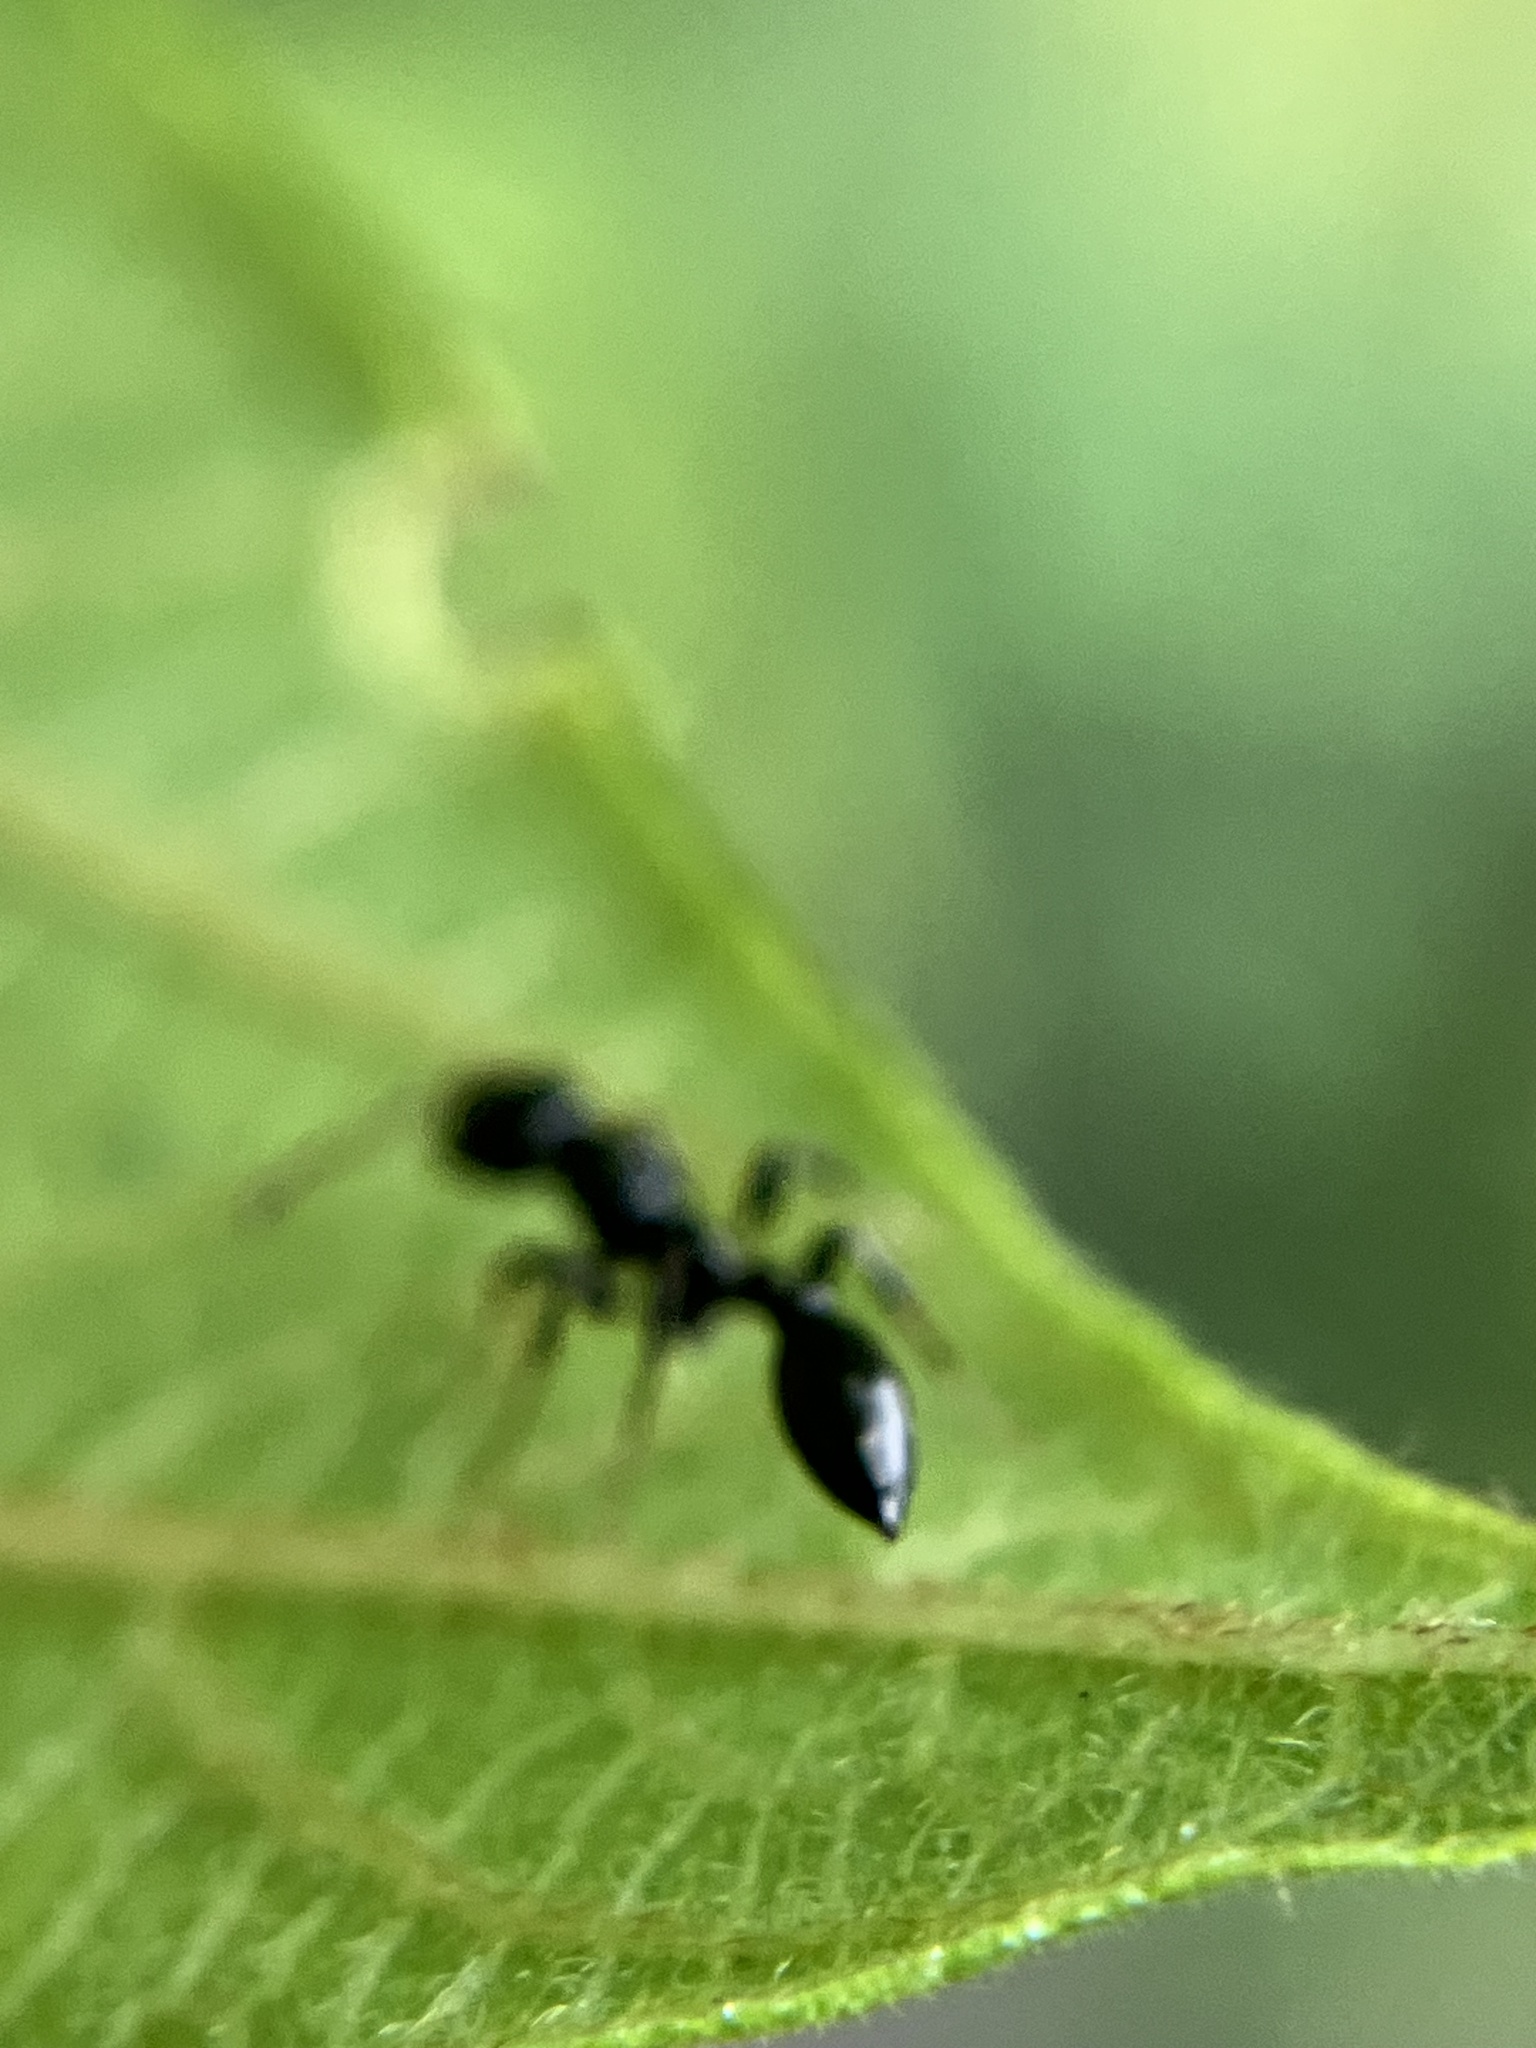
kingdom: Animalia
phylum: Arthropoda
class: Insecta
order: Hymenoptera
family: Formicidae
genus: Tetraponera
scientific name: Tetraponera allaborans
